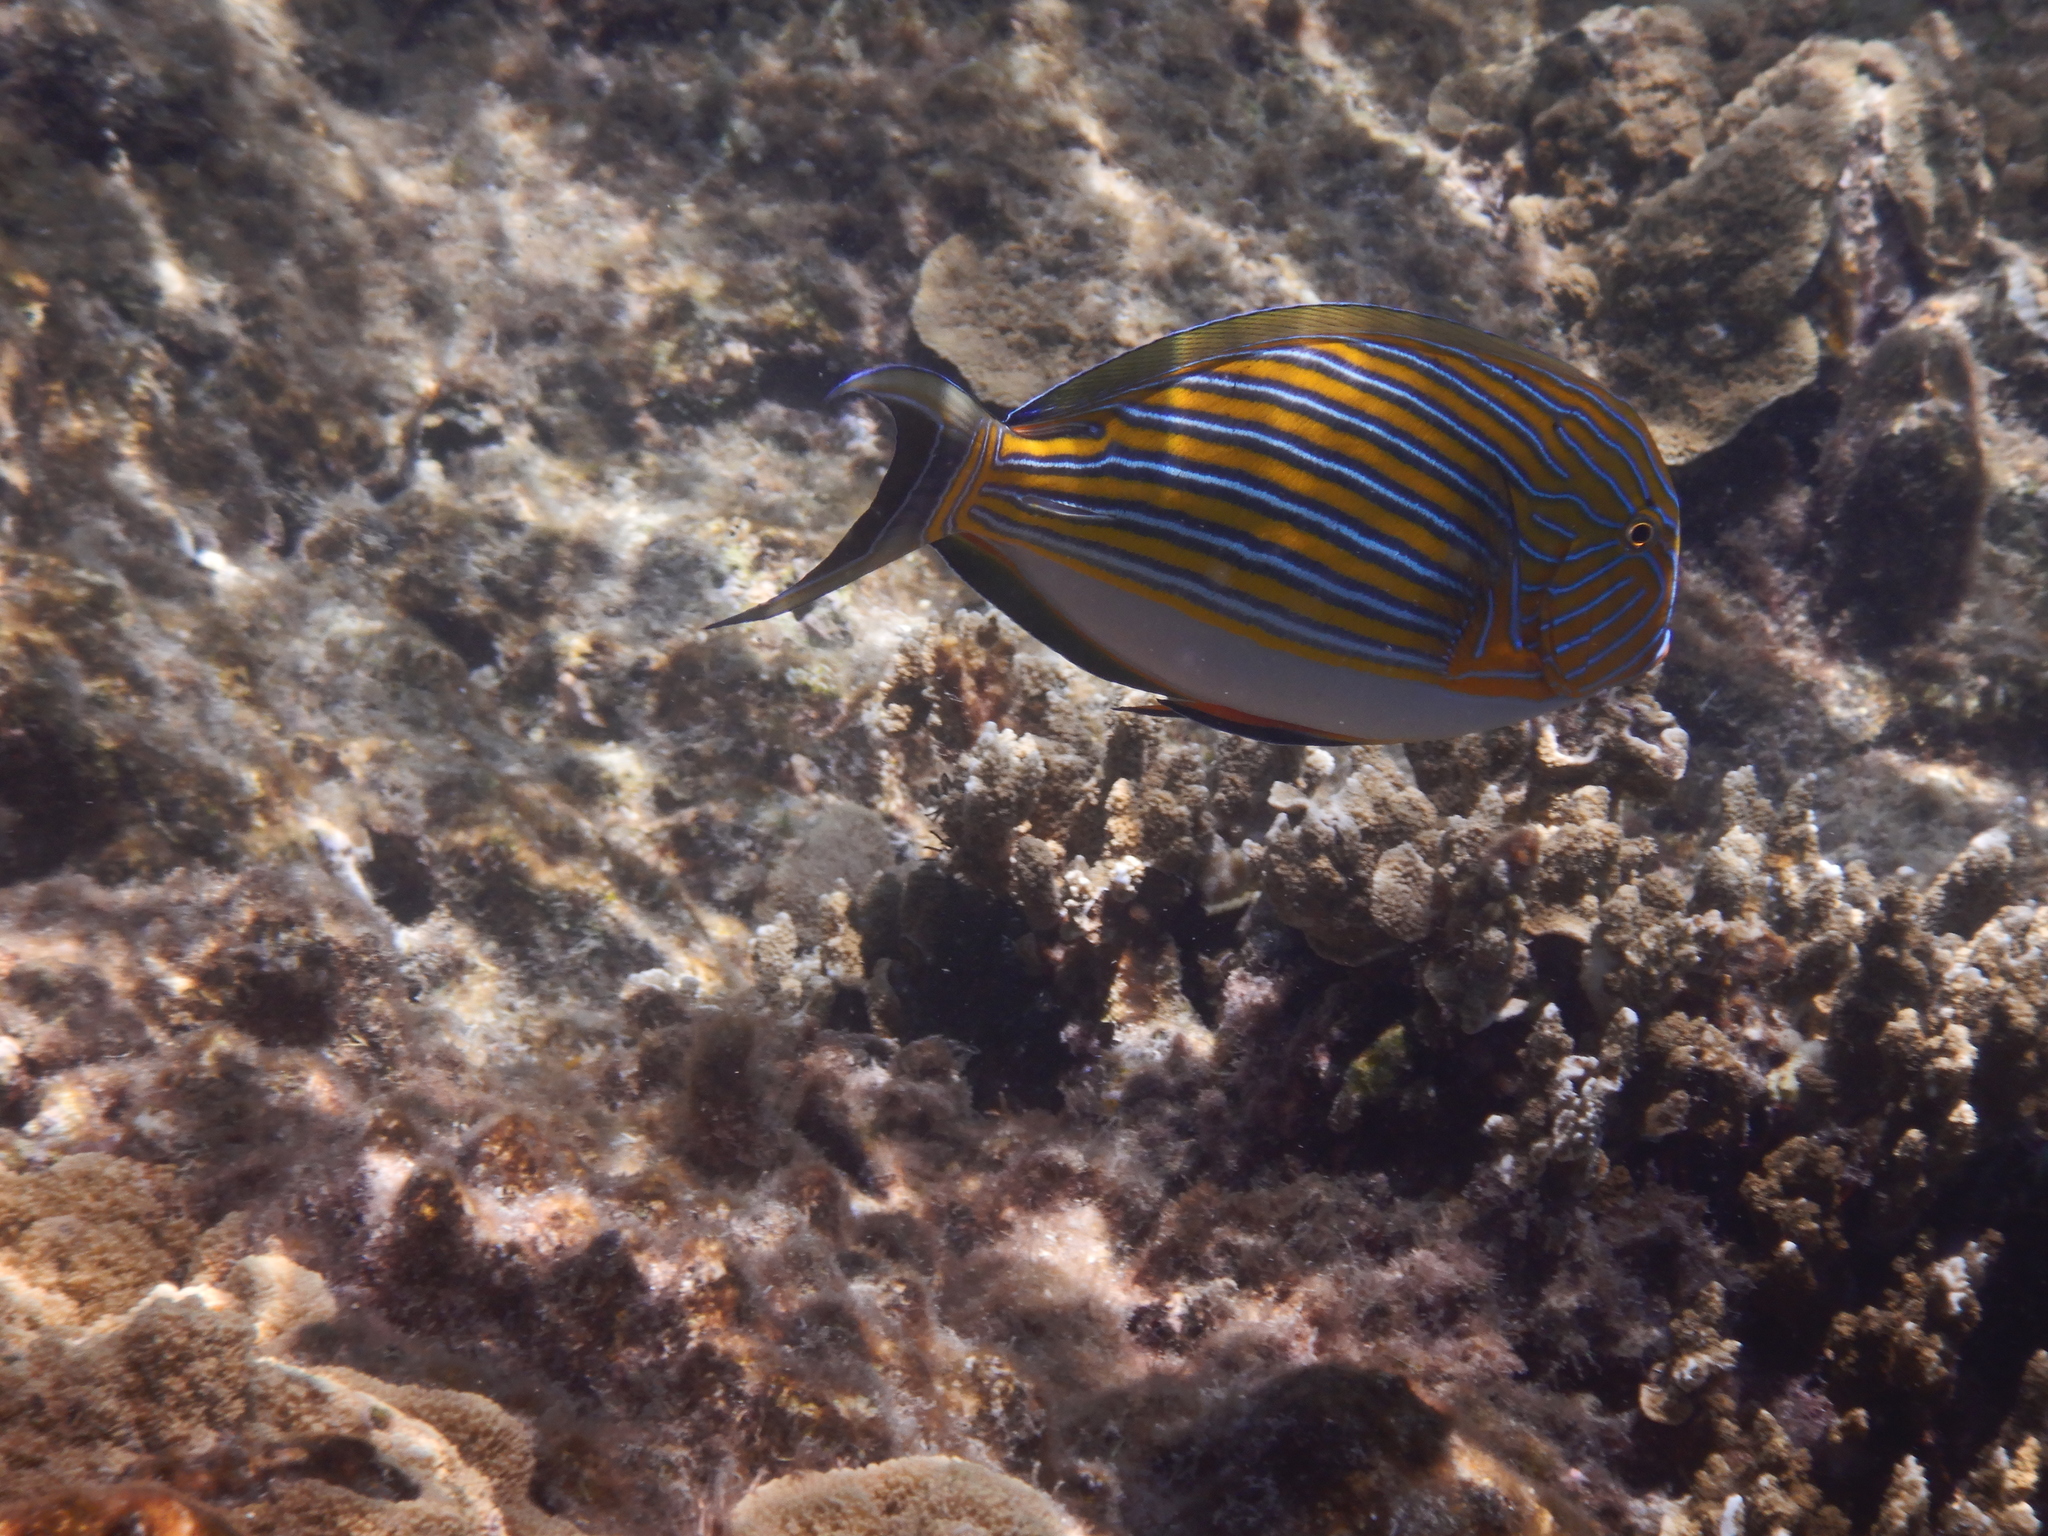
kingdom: Animalia
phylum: Chordata
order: Perciformes
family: Acanthuridae
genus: Acanthurus
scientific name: Acanthurus lineatus
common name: Striped surgeonfish
